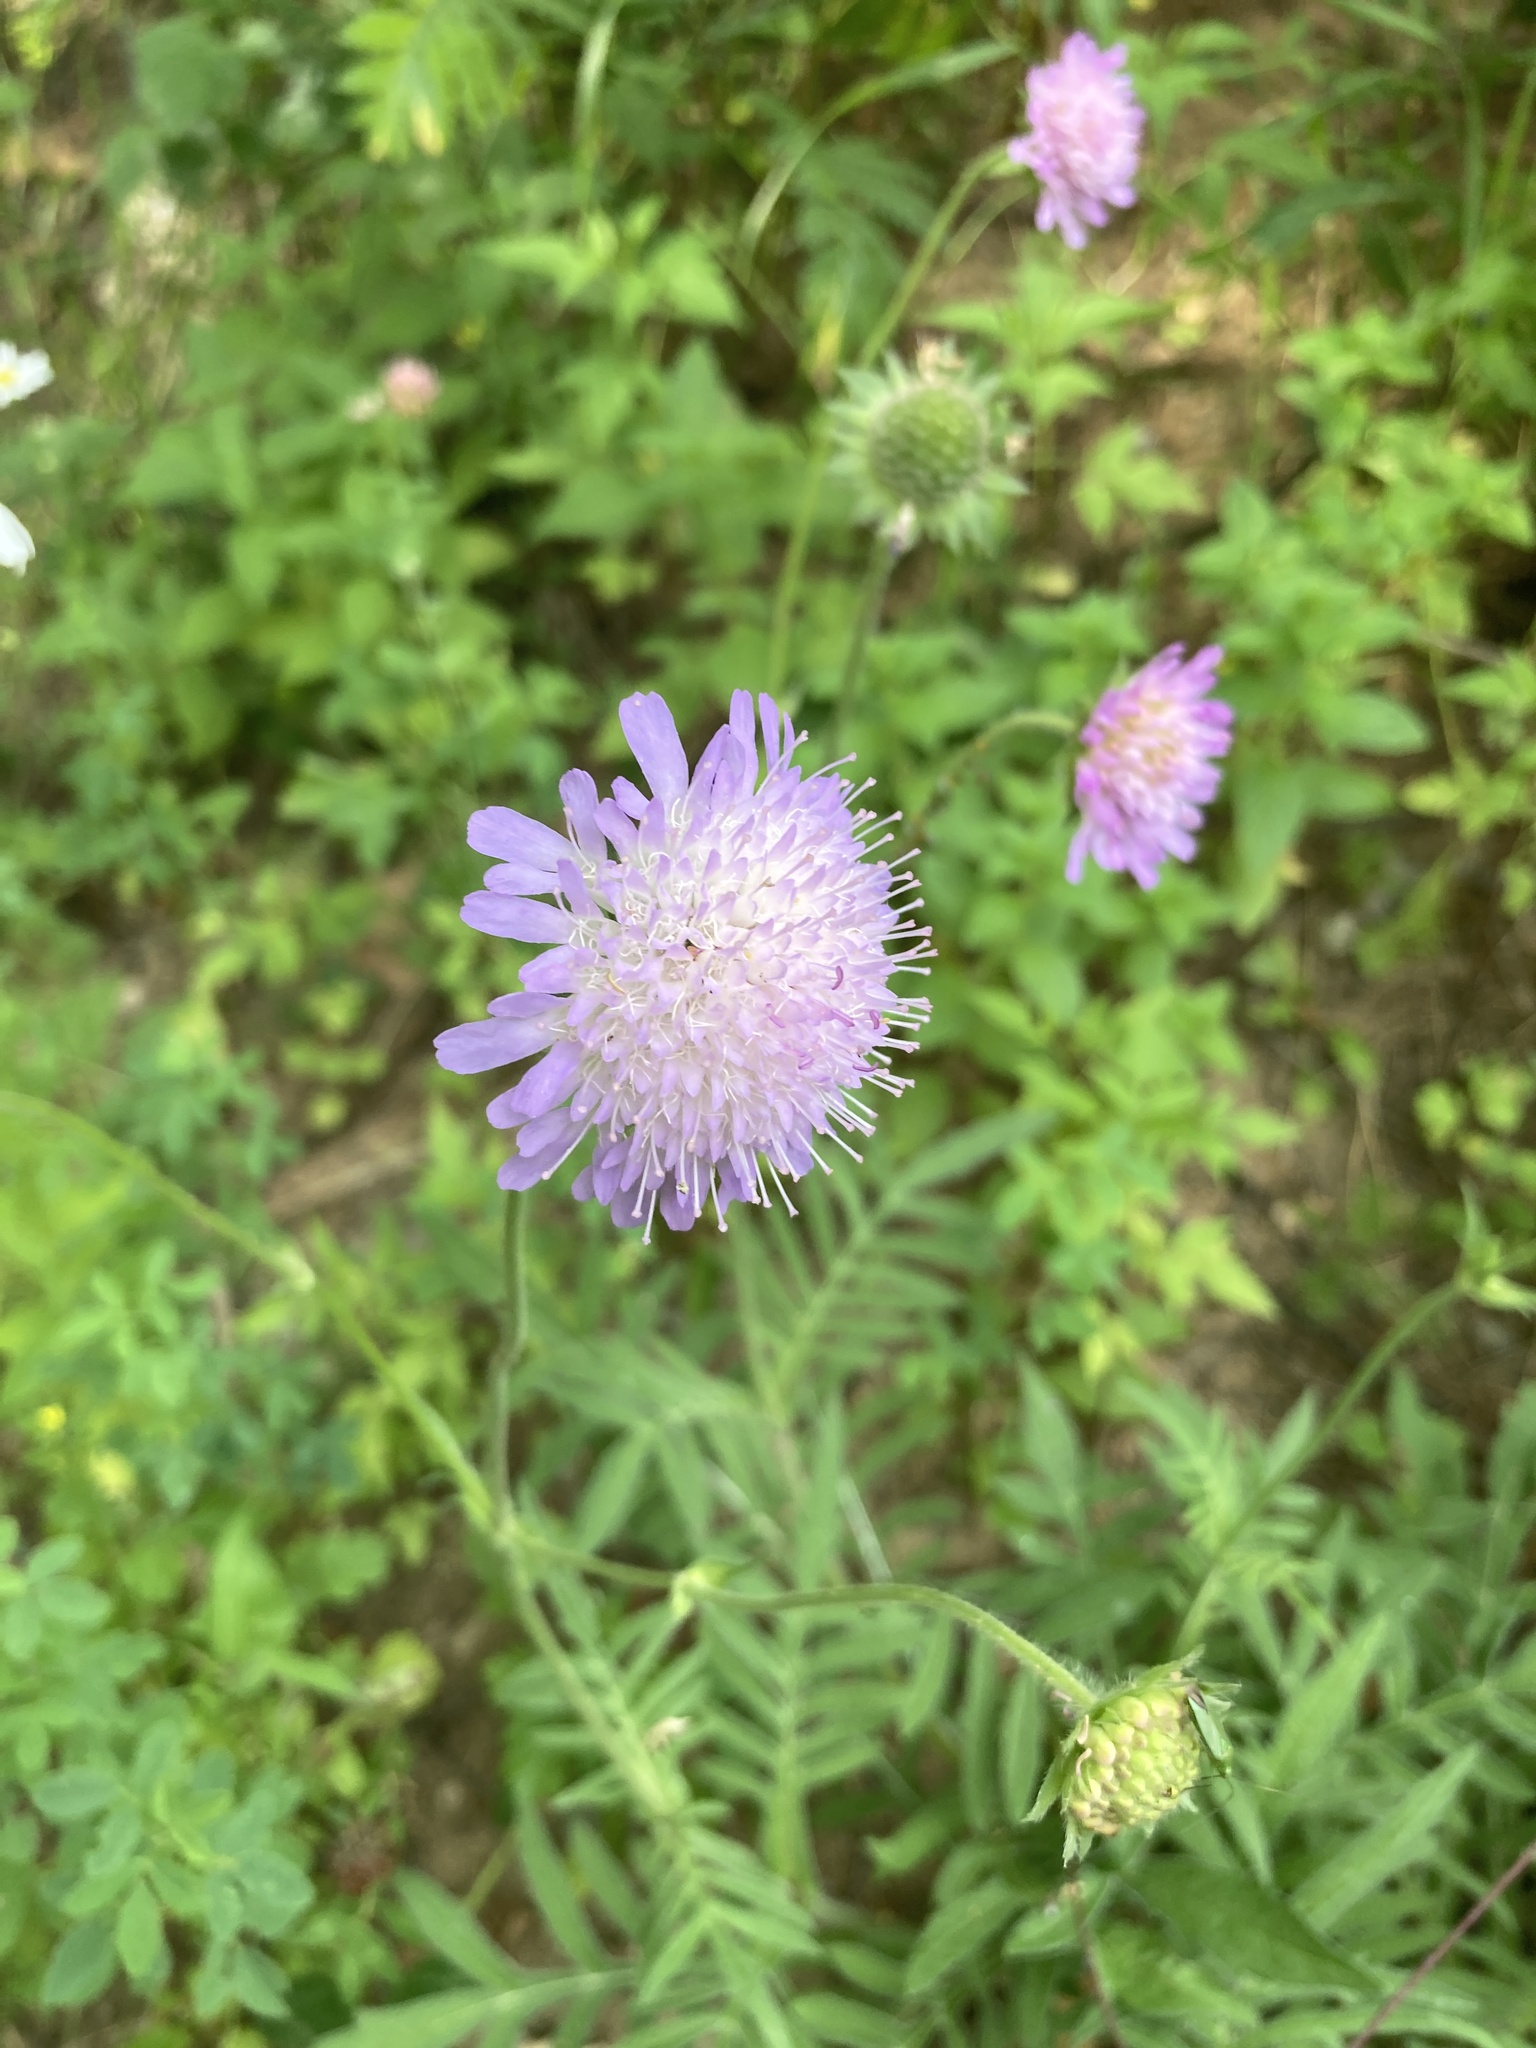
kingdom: Plantae
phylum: Tracheophyta
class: Magnoliopsida
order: Dipsacales
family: Caprifoliaceae
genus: Knautia
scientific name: Knautia arvensis
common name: Field scabiosa
